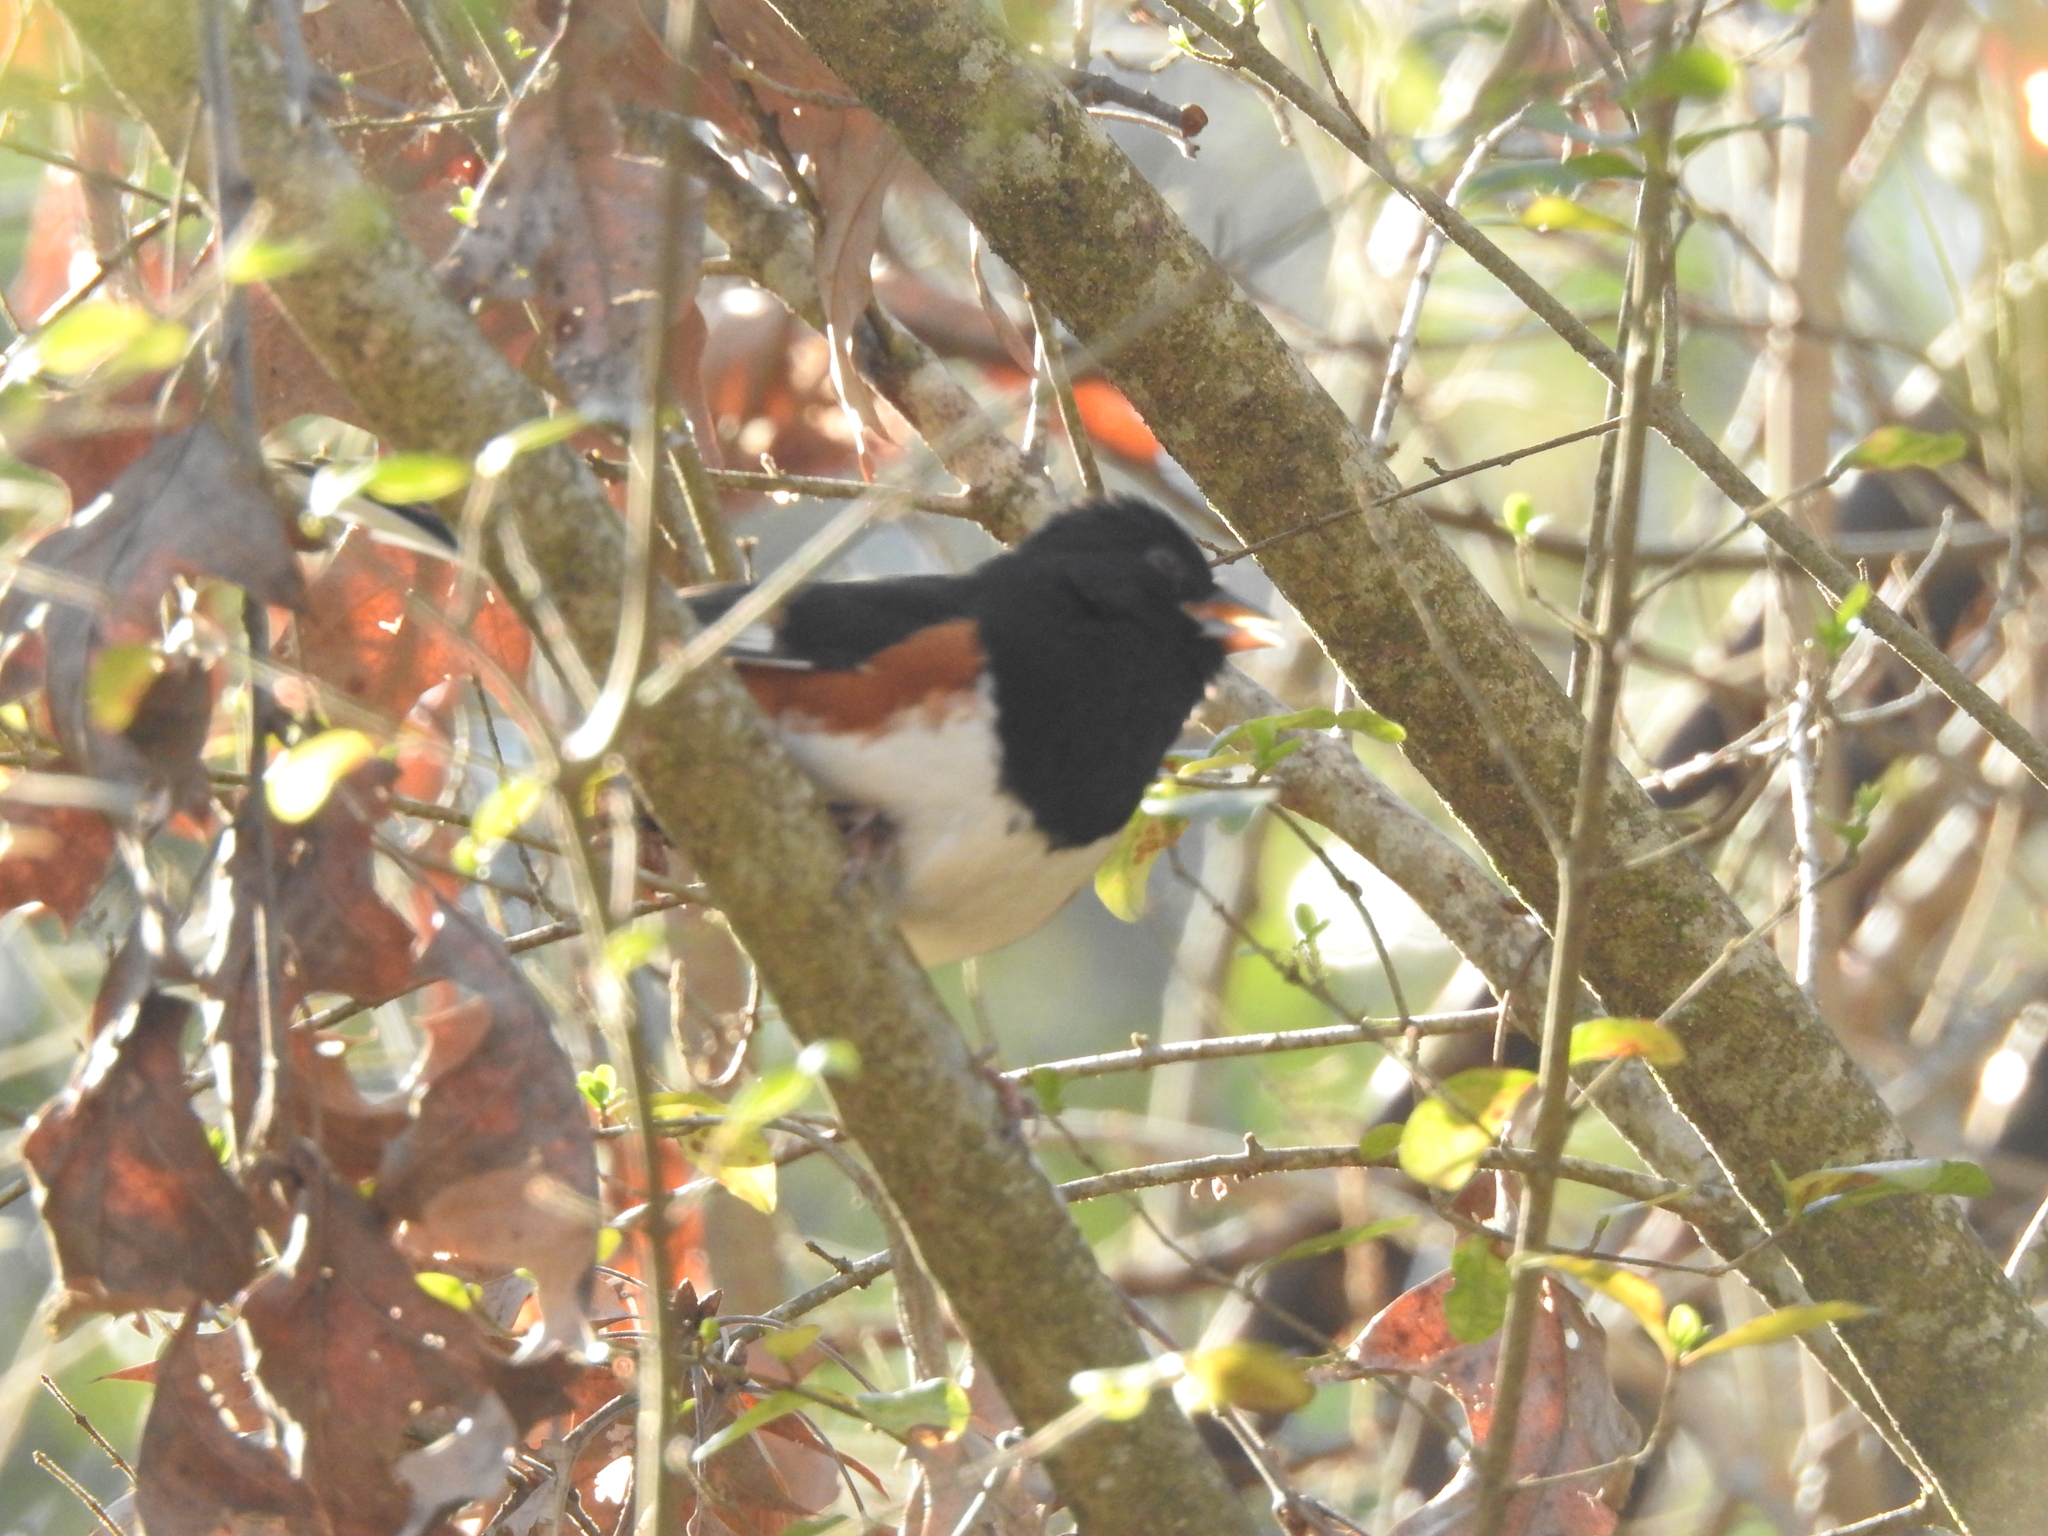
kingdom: Animalia
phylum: Chordata
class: Aves
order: Passeriformes
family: Passerellidae
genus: Pipilo
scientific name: Pipilo erythrophthalmus
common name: Eastern towhee
